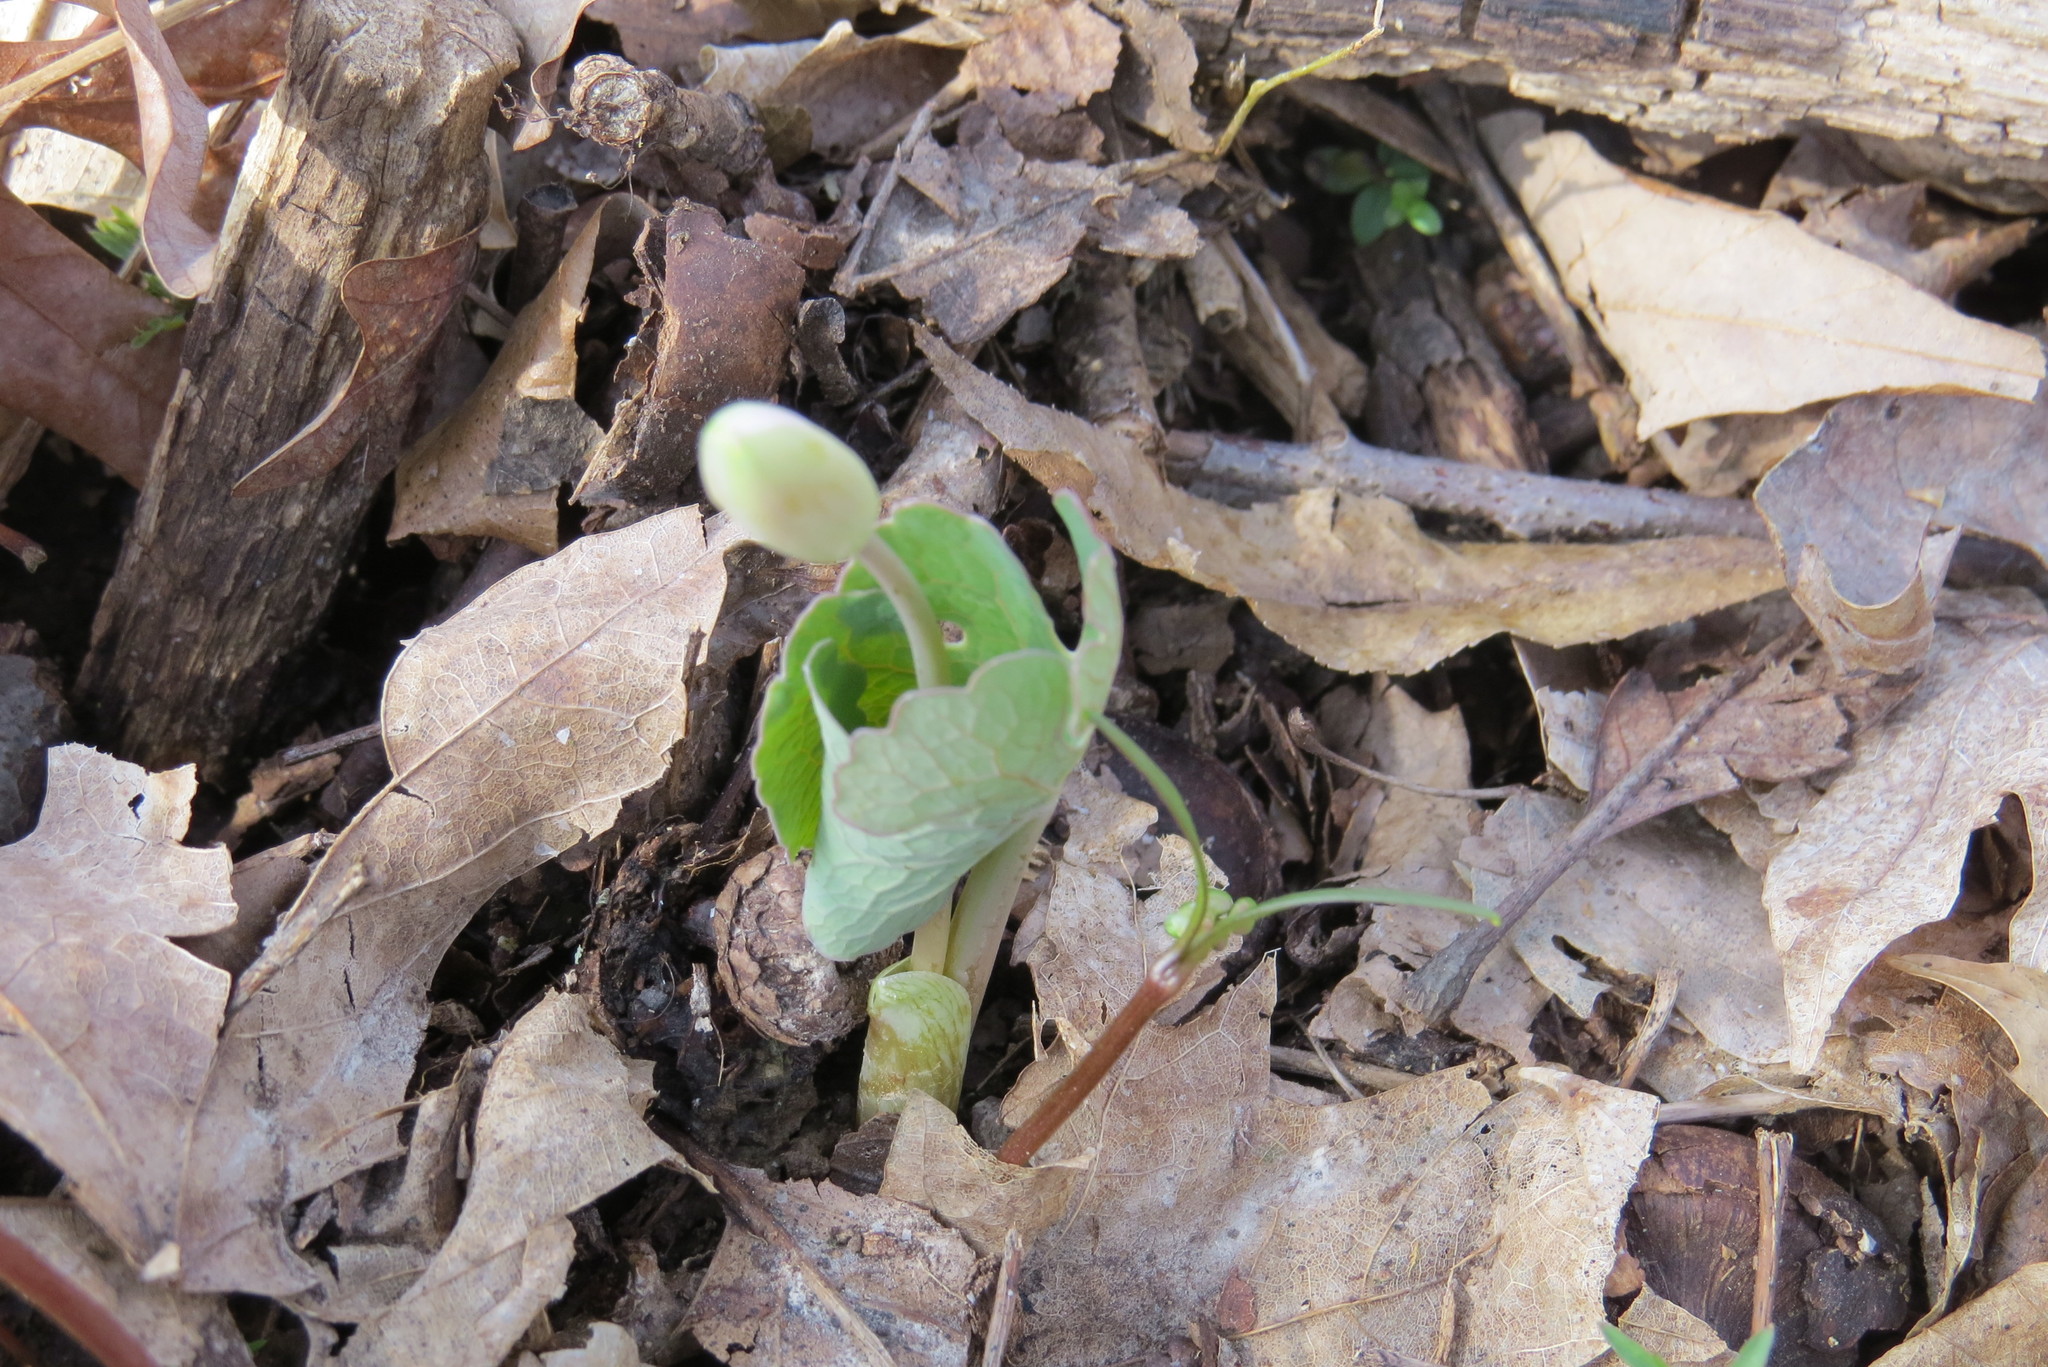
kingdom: Plantae
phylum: Tracheophyta
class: Magnoliopsida
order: Ranunculales
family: Papaveraceae
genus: Sanguinaria
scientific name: Sanguinaria canadensis
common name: Bloodroot
